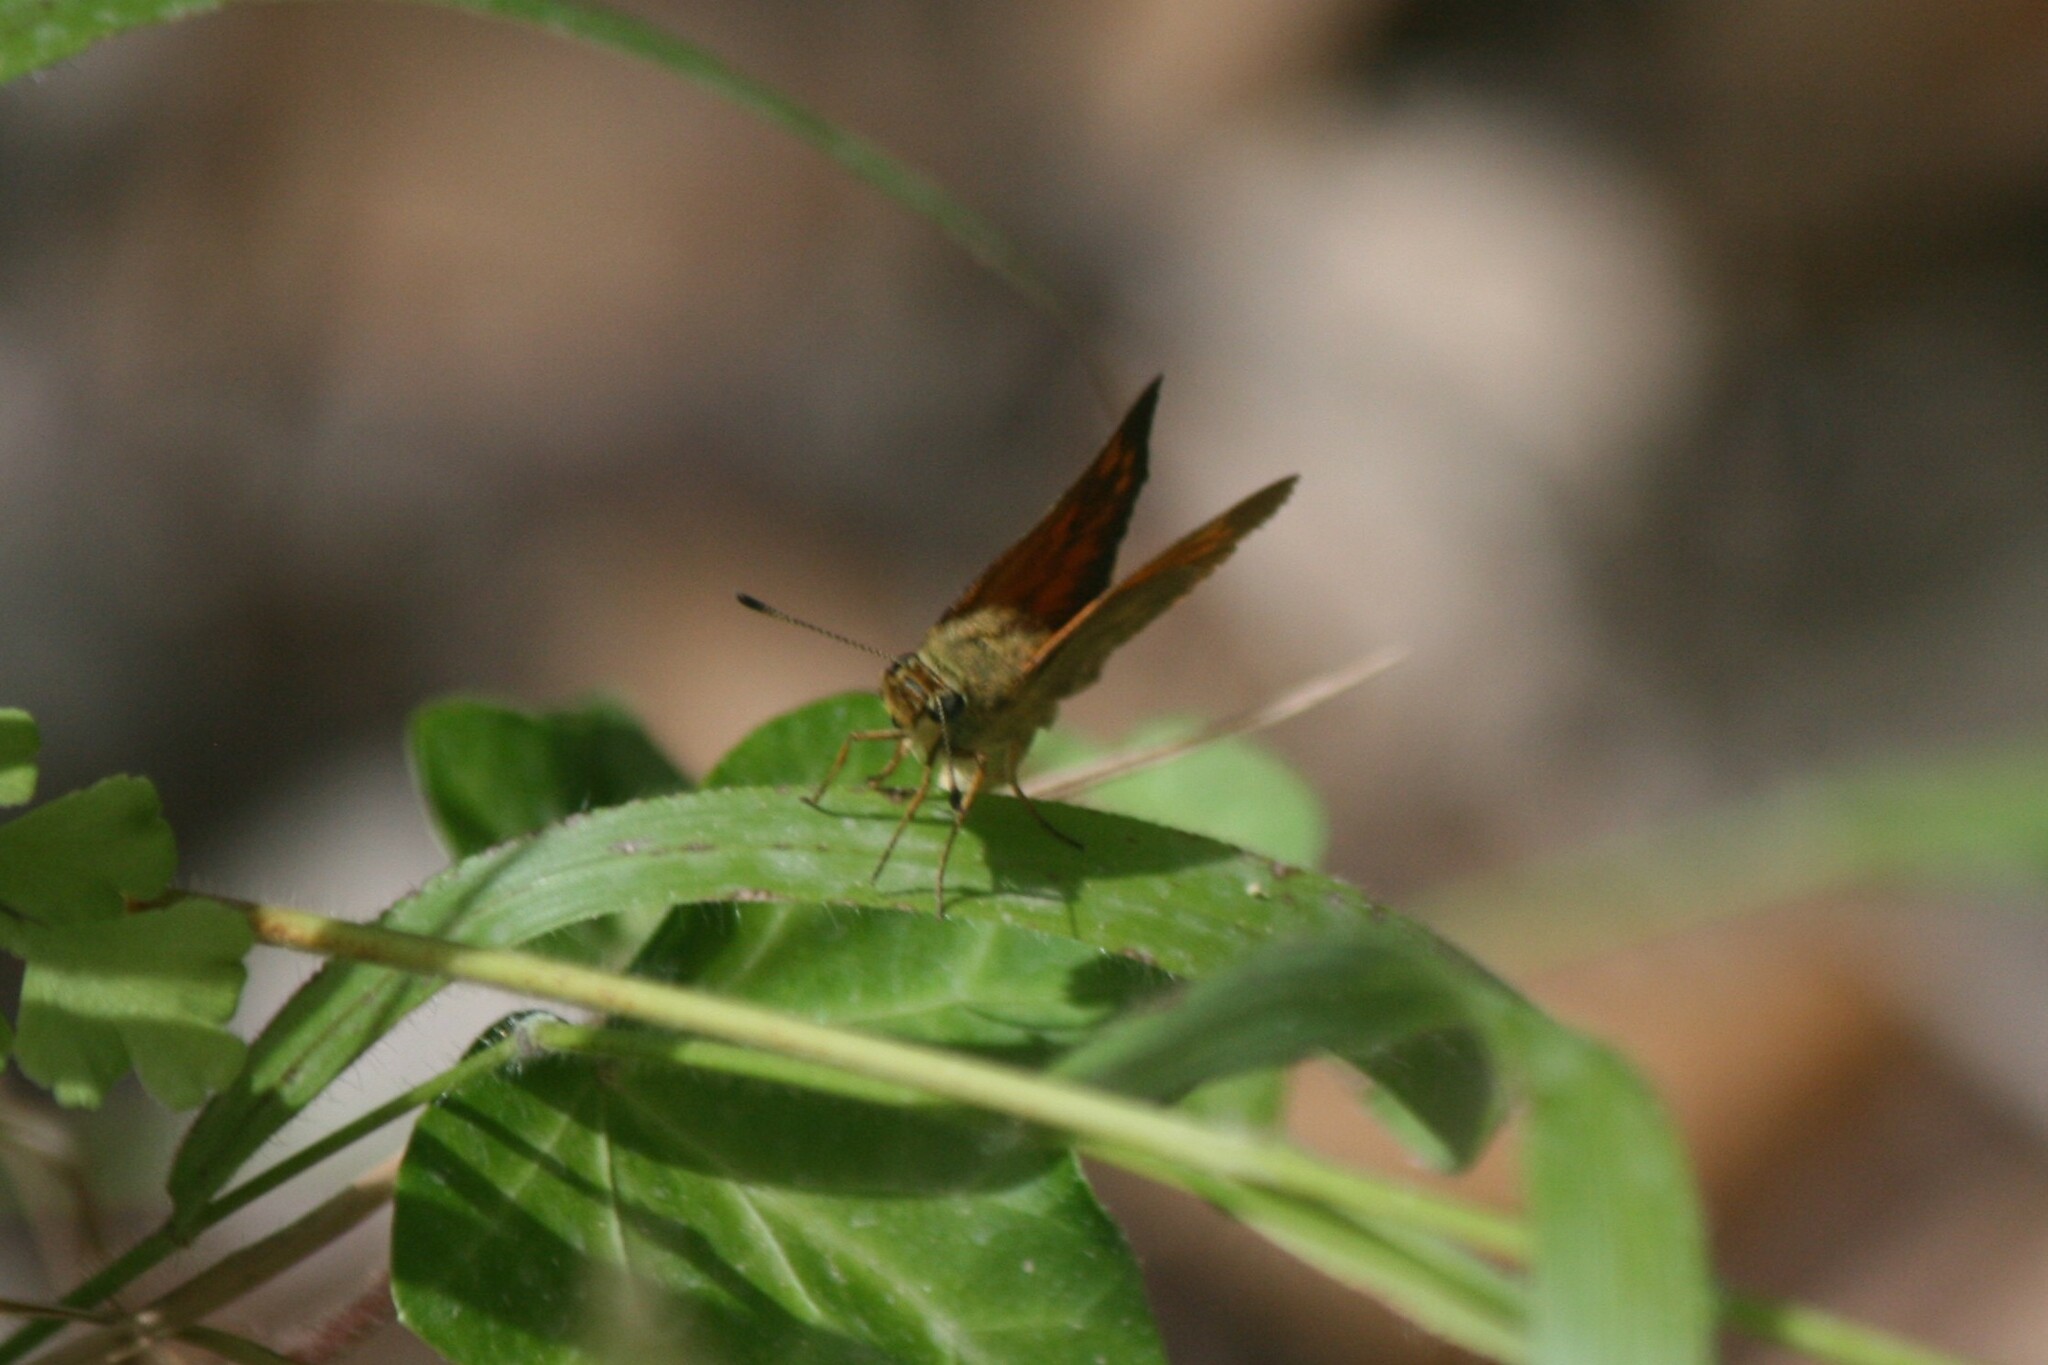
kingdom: Animalia
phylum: Arthropoda
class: Insecta
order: Lepidoptera
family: Hesperiidae
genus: Ochlodes
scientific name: Ochlodes venata
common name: Large skipper
